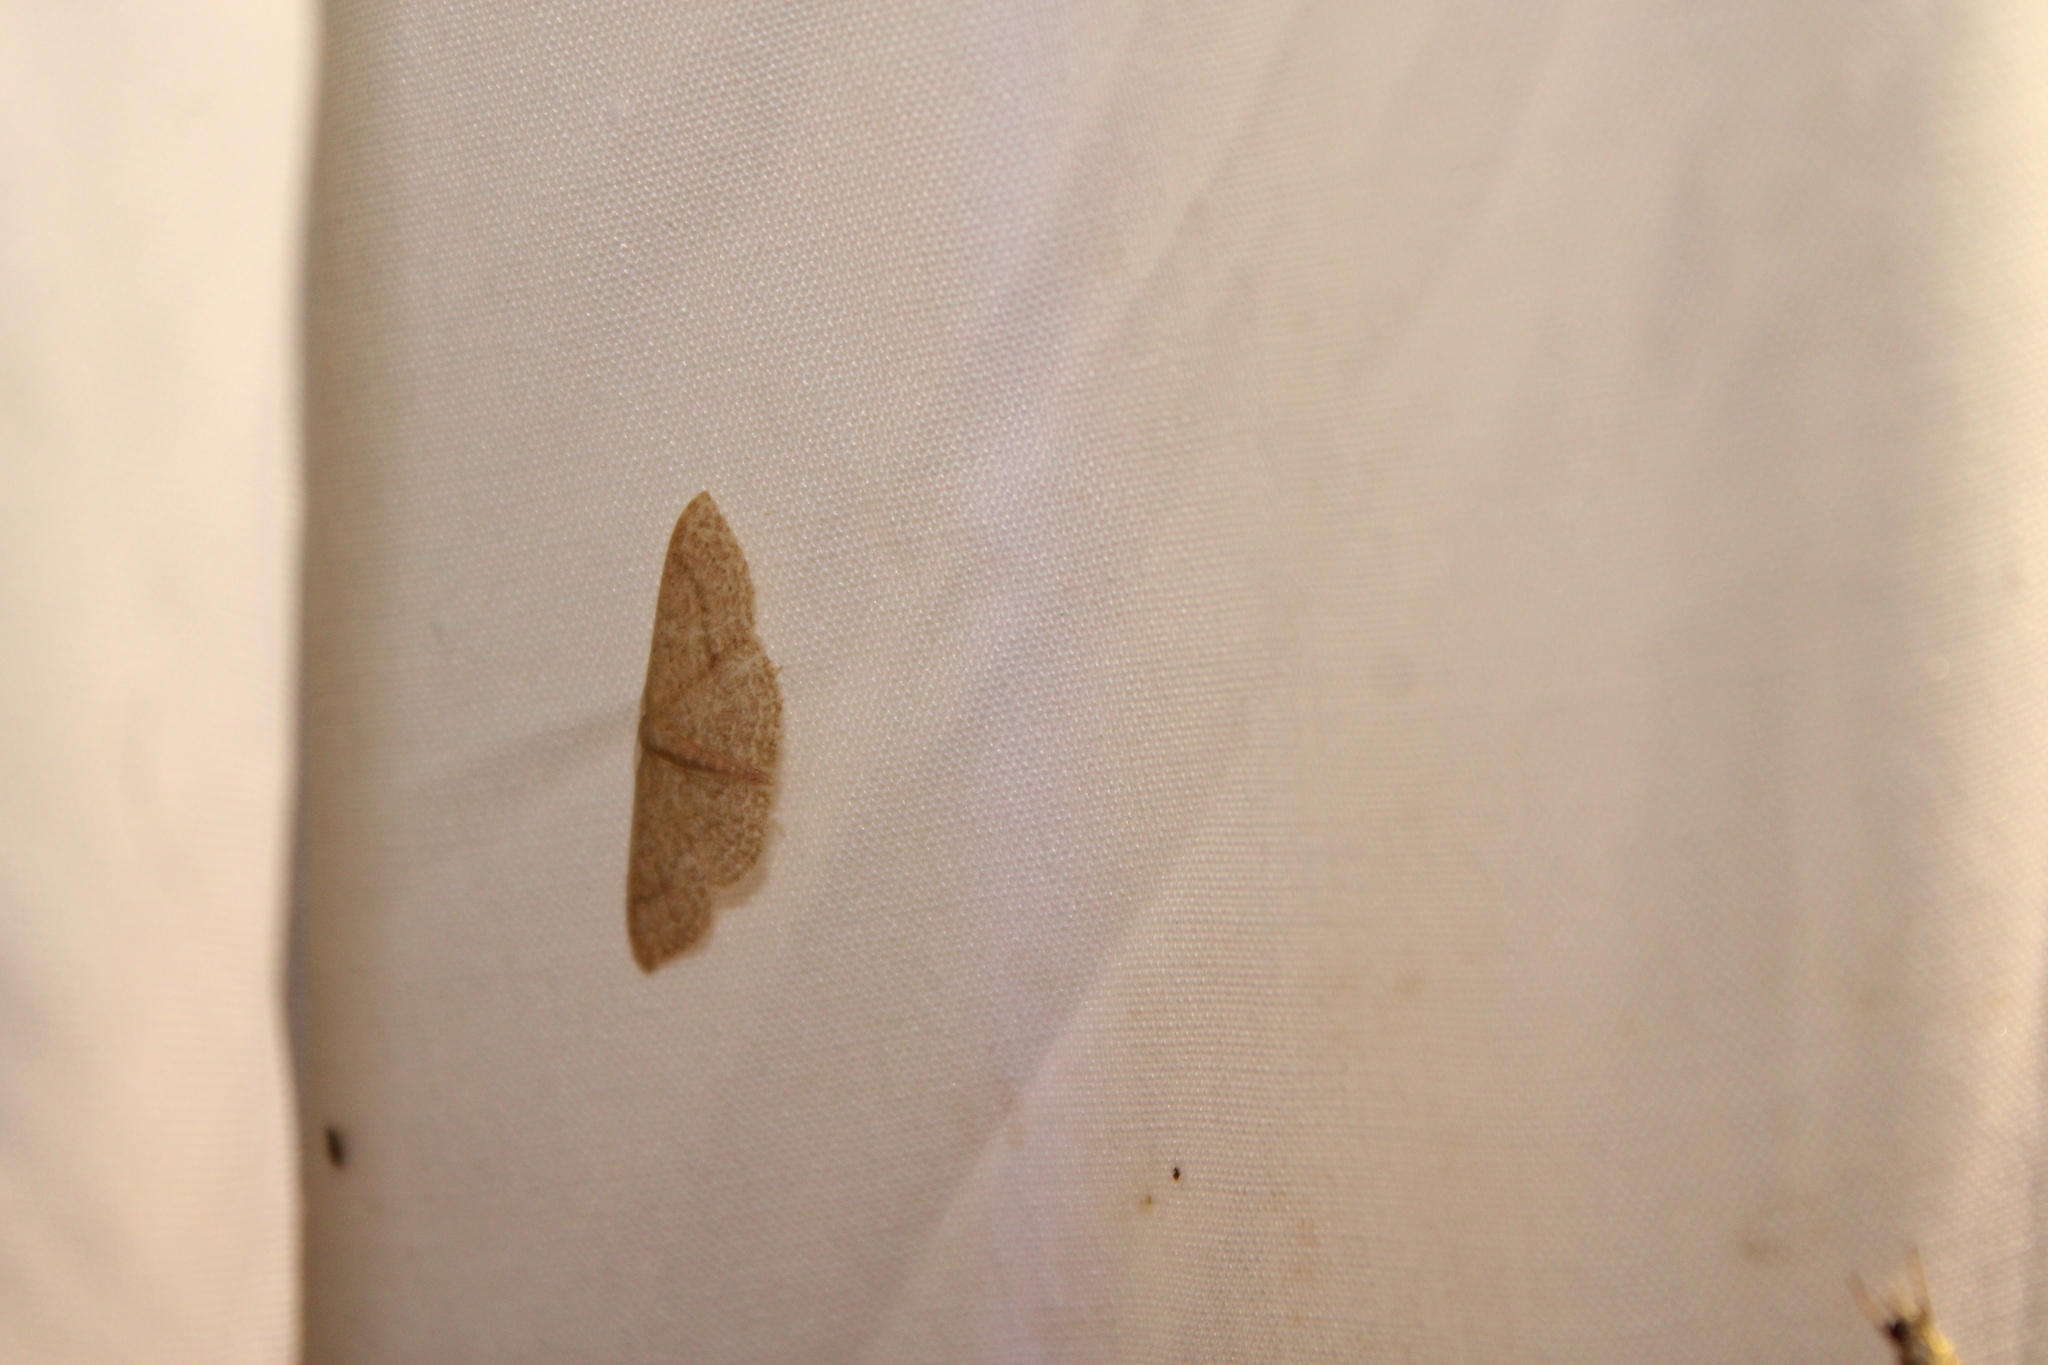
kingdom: Animalia
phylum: Arthropoda
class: Insecta
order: Lepidoptera
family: Geometridae
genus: Pleuroprucha
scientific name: Pleuroprucha insulsaria
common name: Common tan wave
